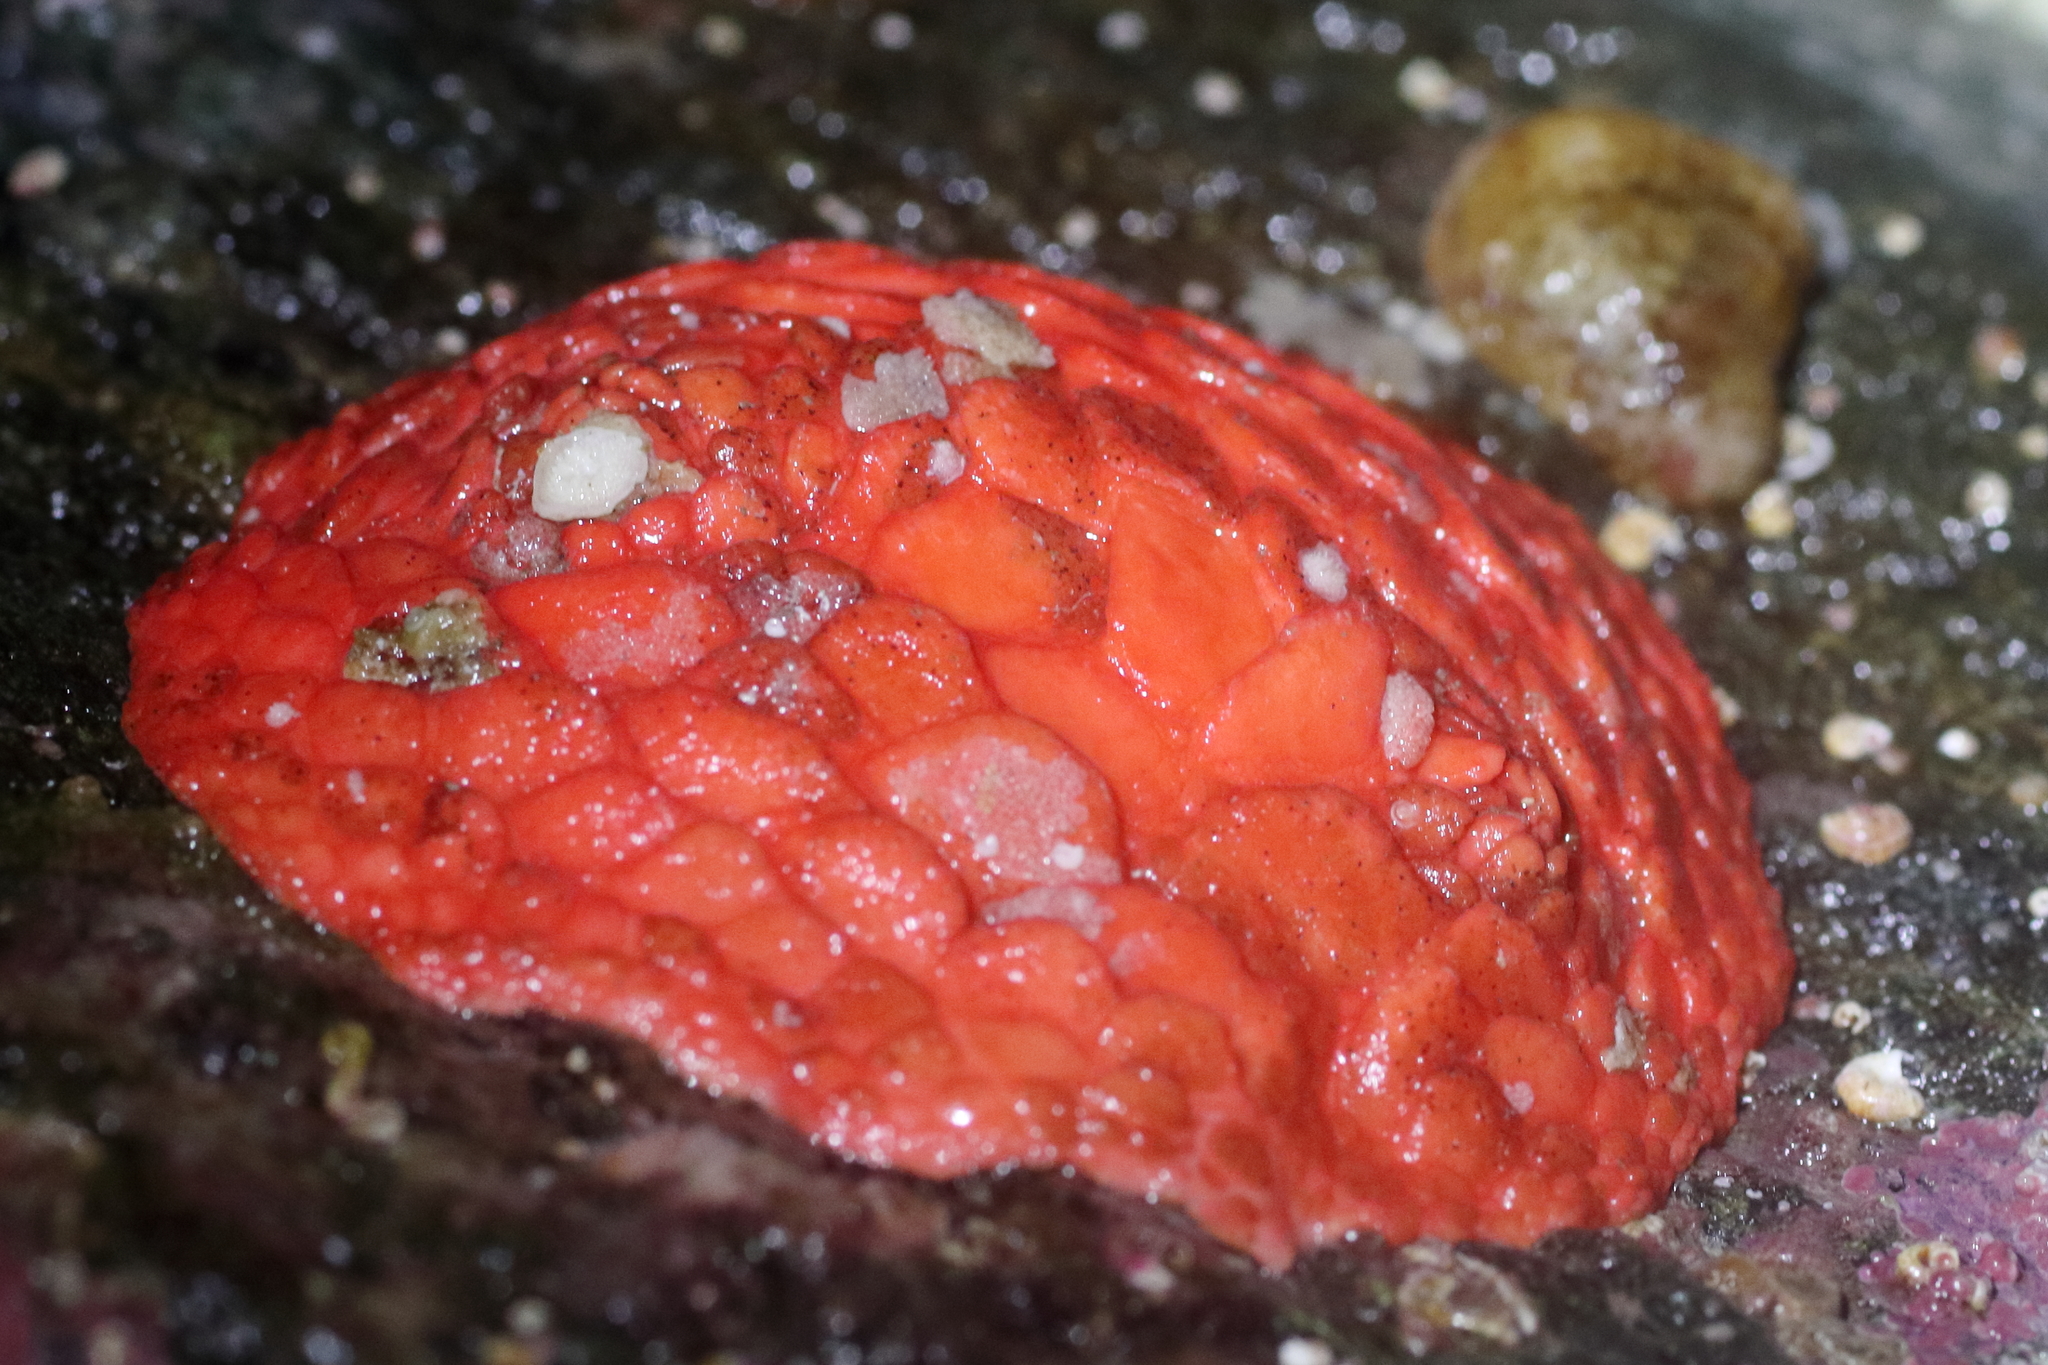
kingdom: Animalia
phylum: Echinodermata
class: Holothuroidea
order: Dendrochirotida
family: Psolidae
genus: Psolus
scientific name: Psolus chitonoides
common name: Creeping pedal sea cucumber
